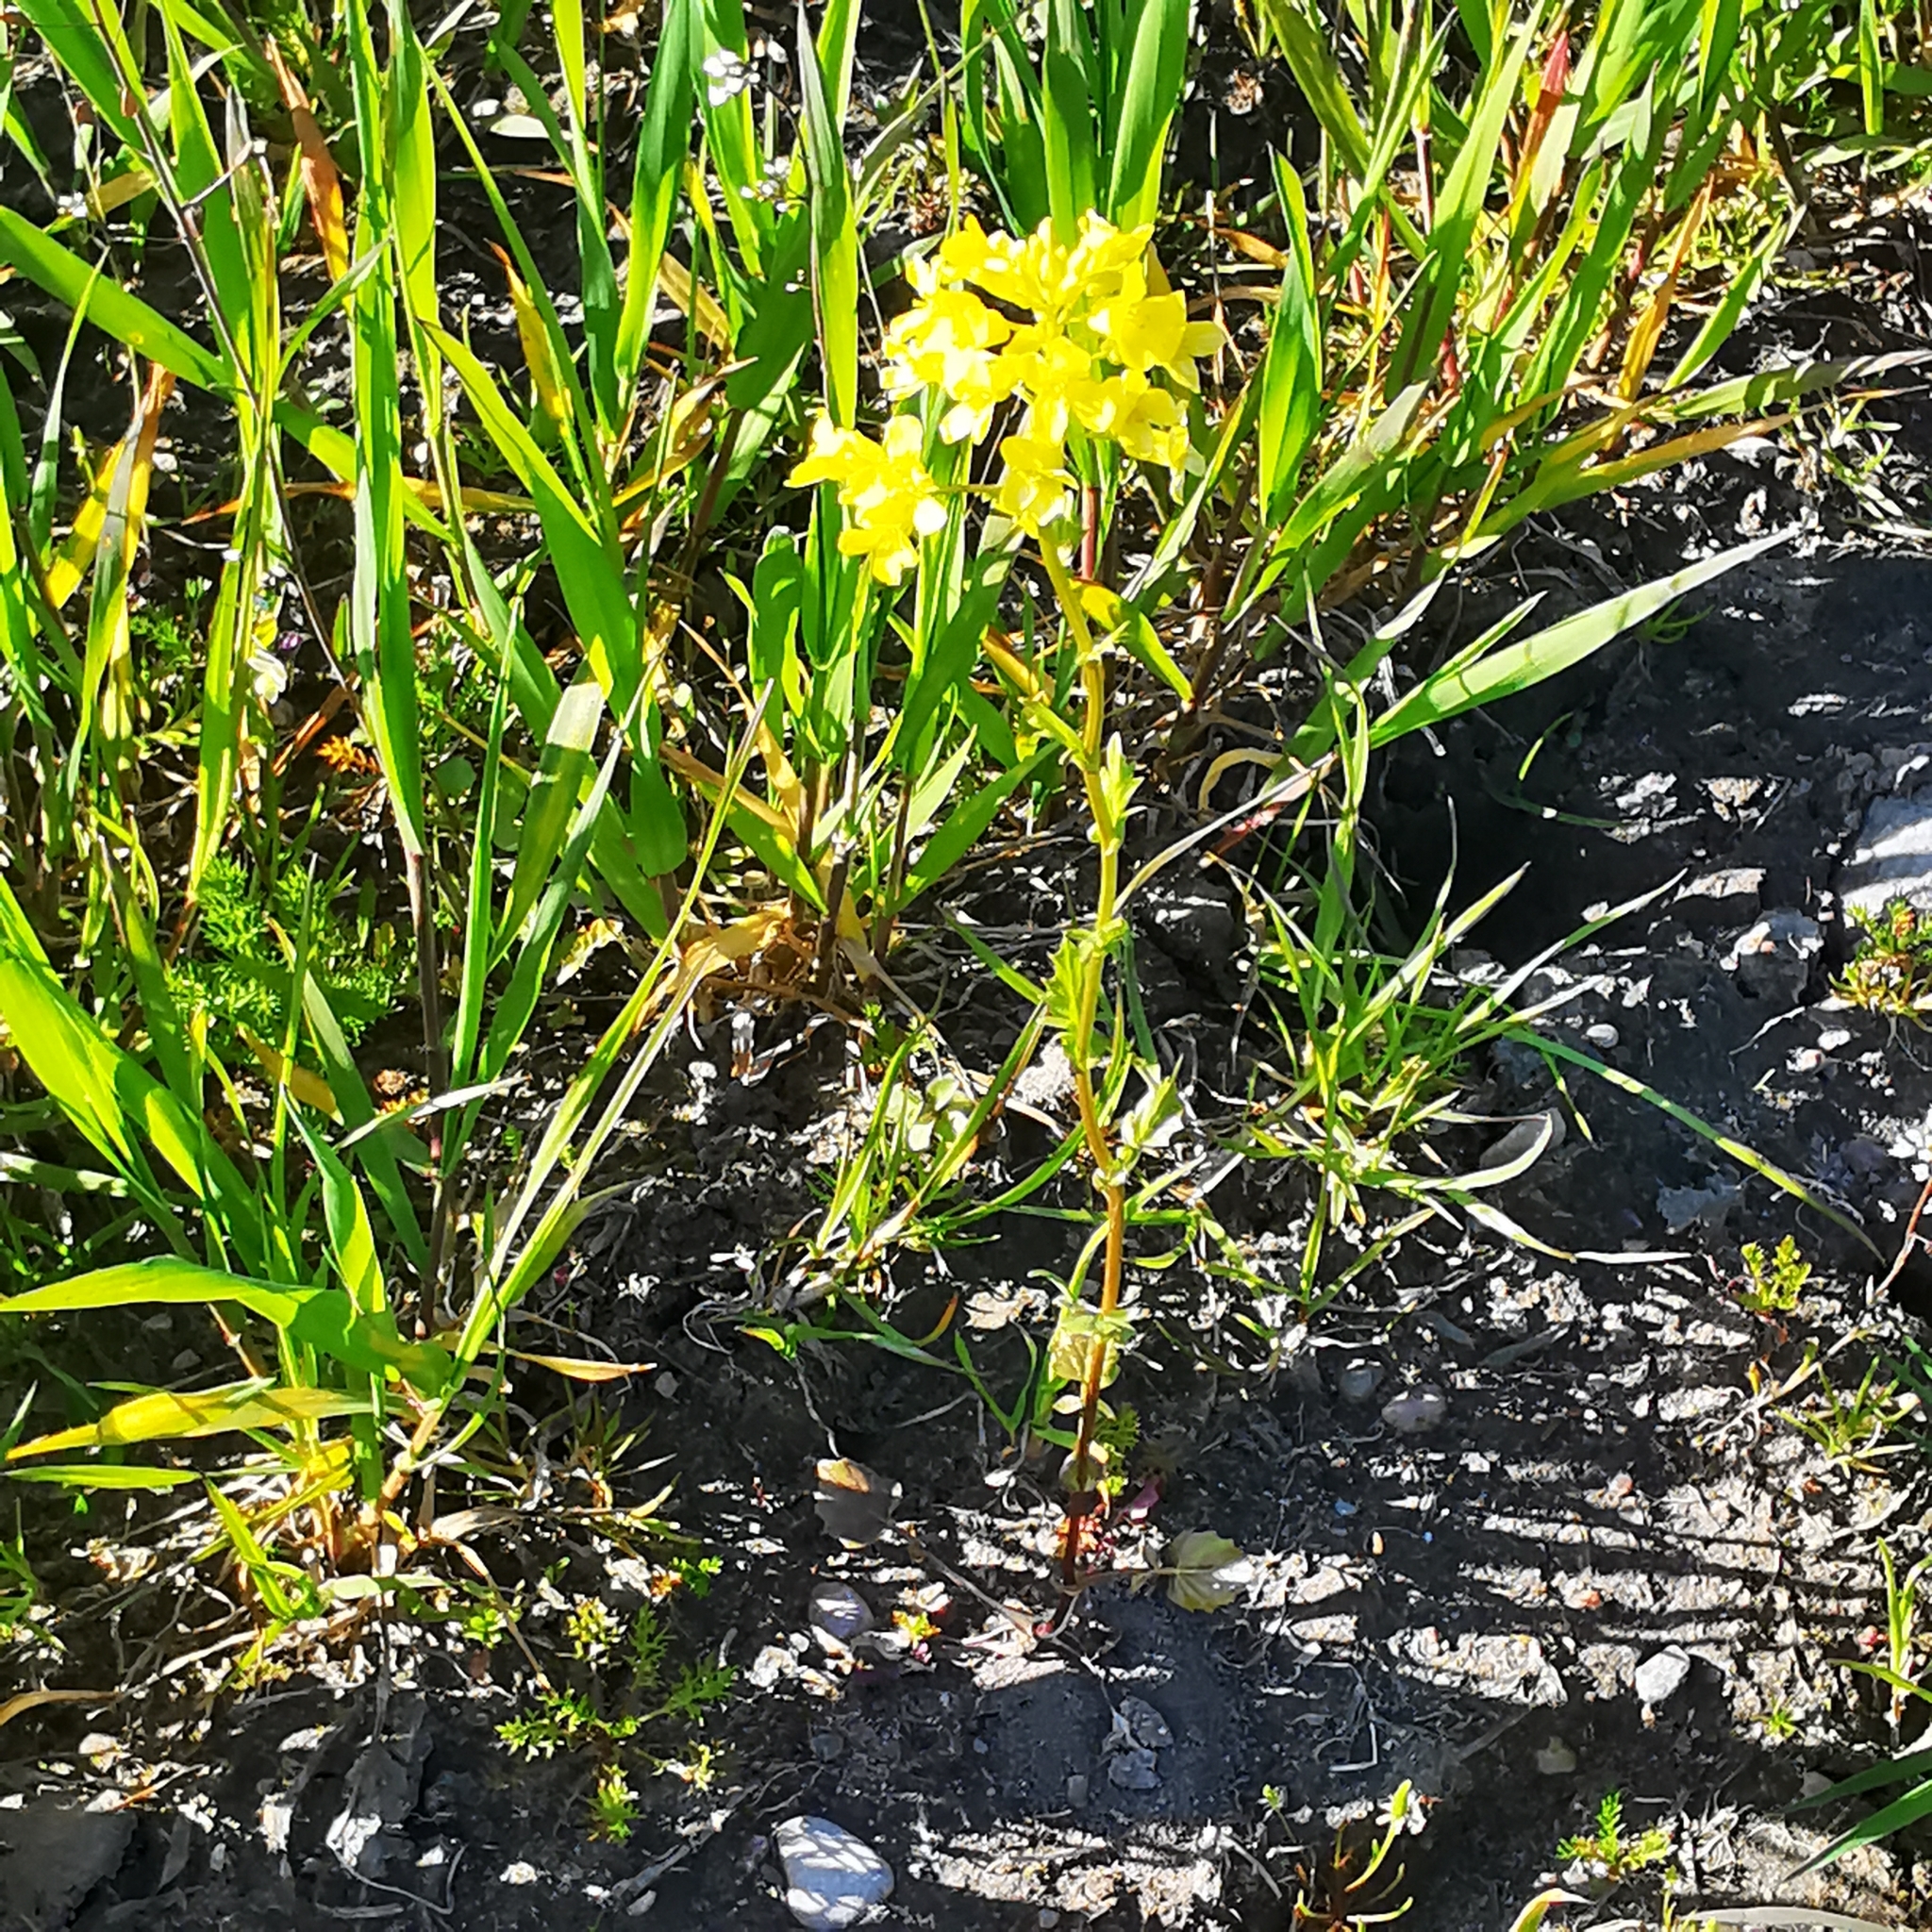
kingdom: Plantae
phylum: Tracheophyta
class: Magnoliopsida
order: Brassicales
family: Brassicaceae
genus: Barbarea
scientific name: Barbarea vulgaris
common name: Cressy-greens
